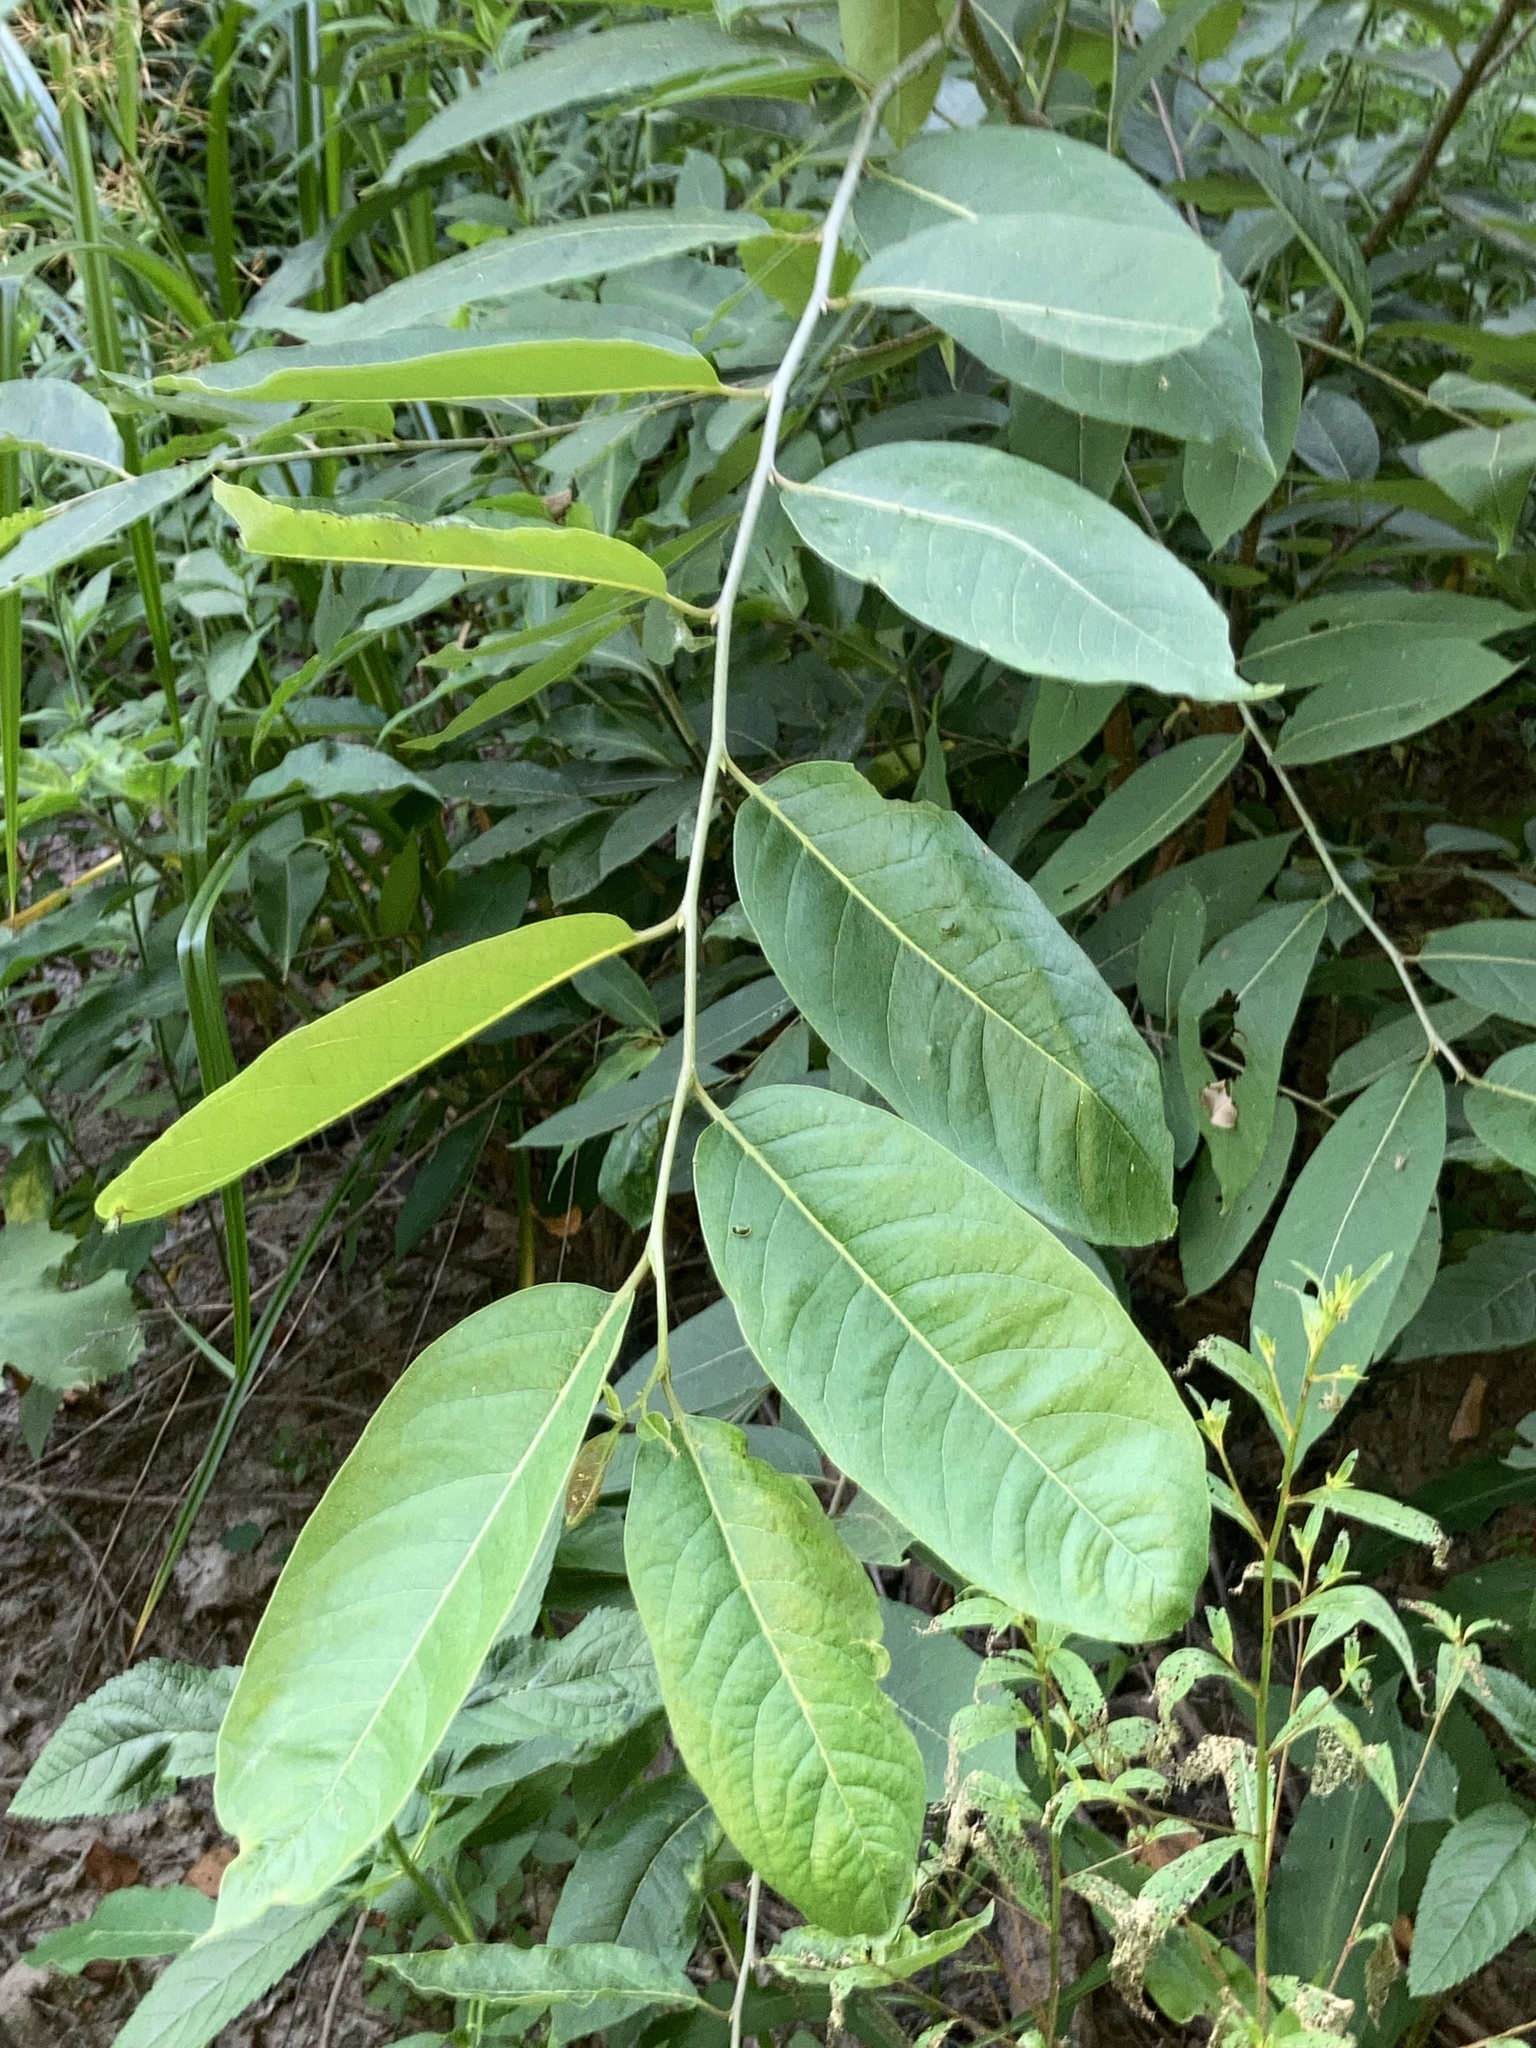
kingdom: Plantae
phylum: Tracheophyta
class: Magnoliopsida
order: Ericales
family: Ebenaceae
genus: Diospyros
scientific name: Diospyros virginiana
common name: Persimmon
